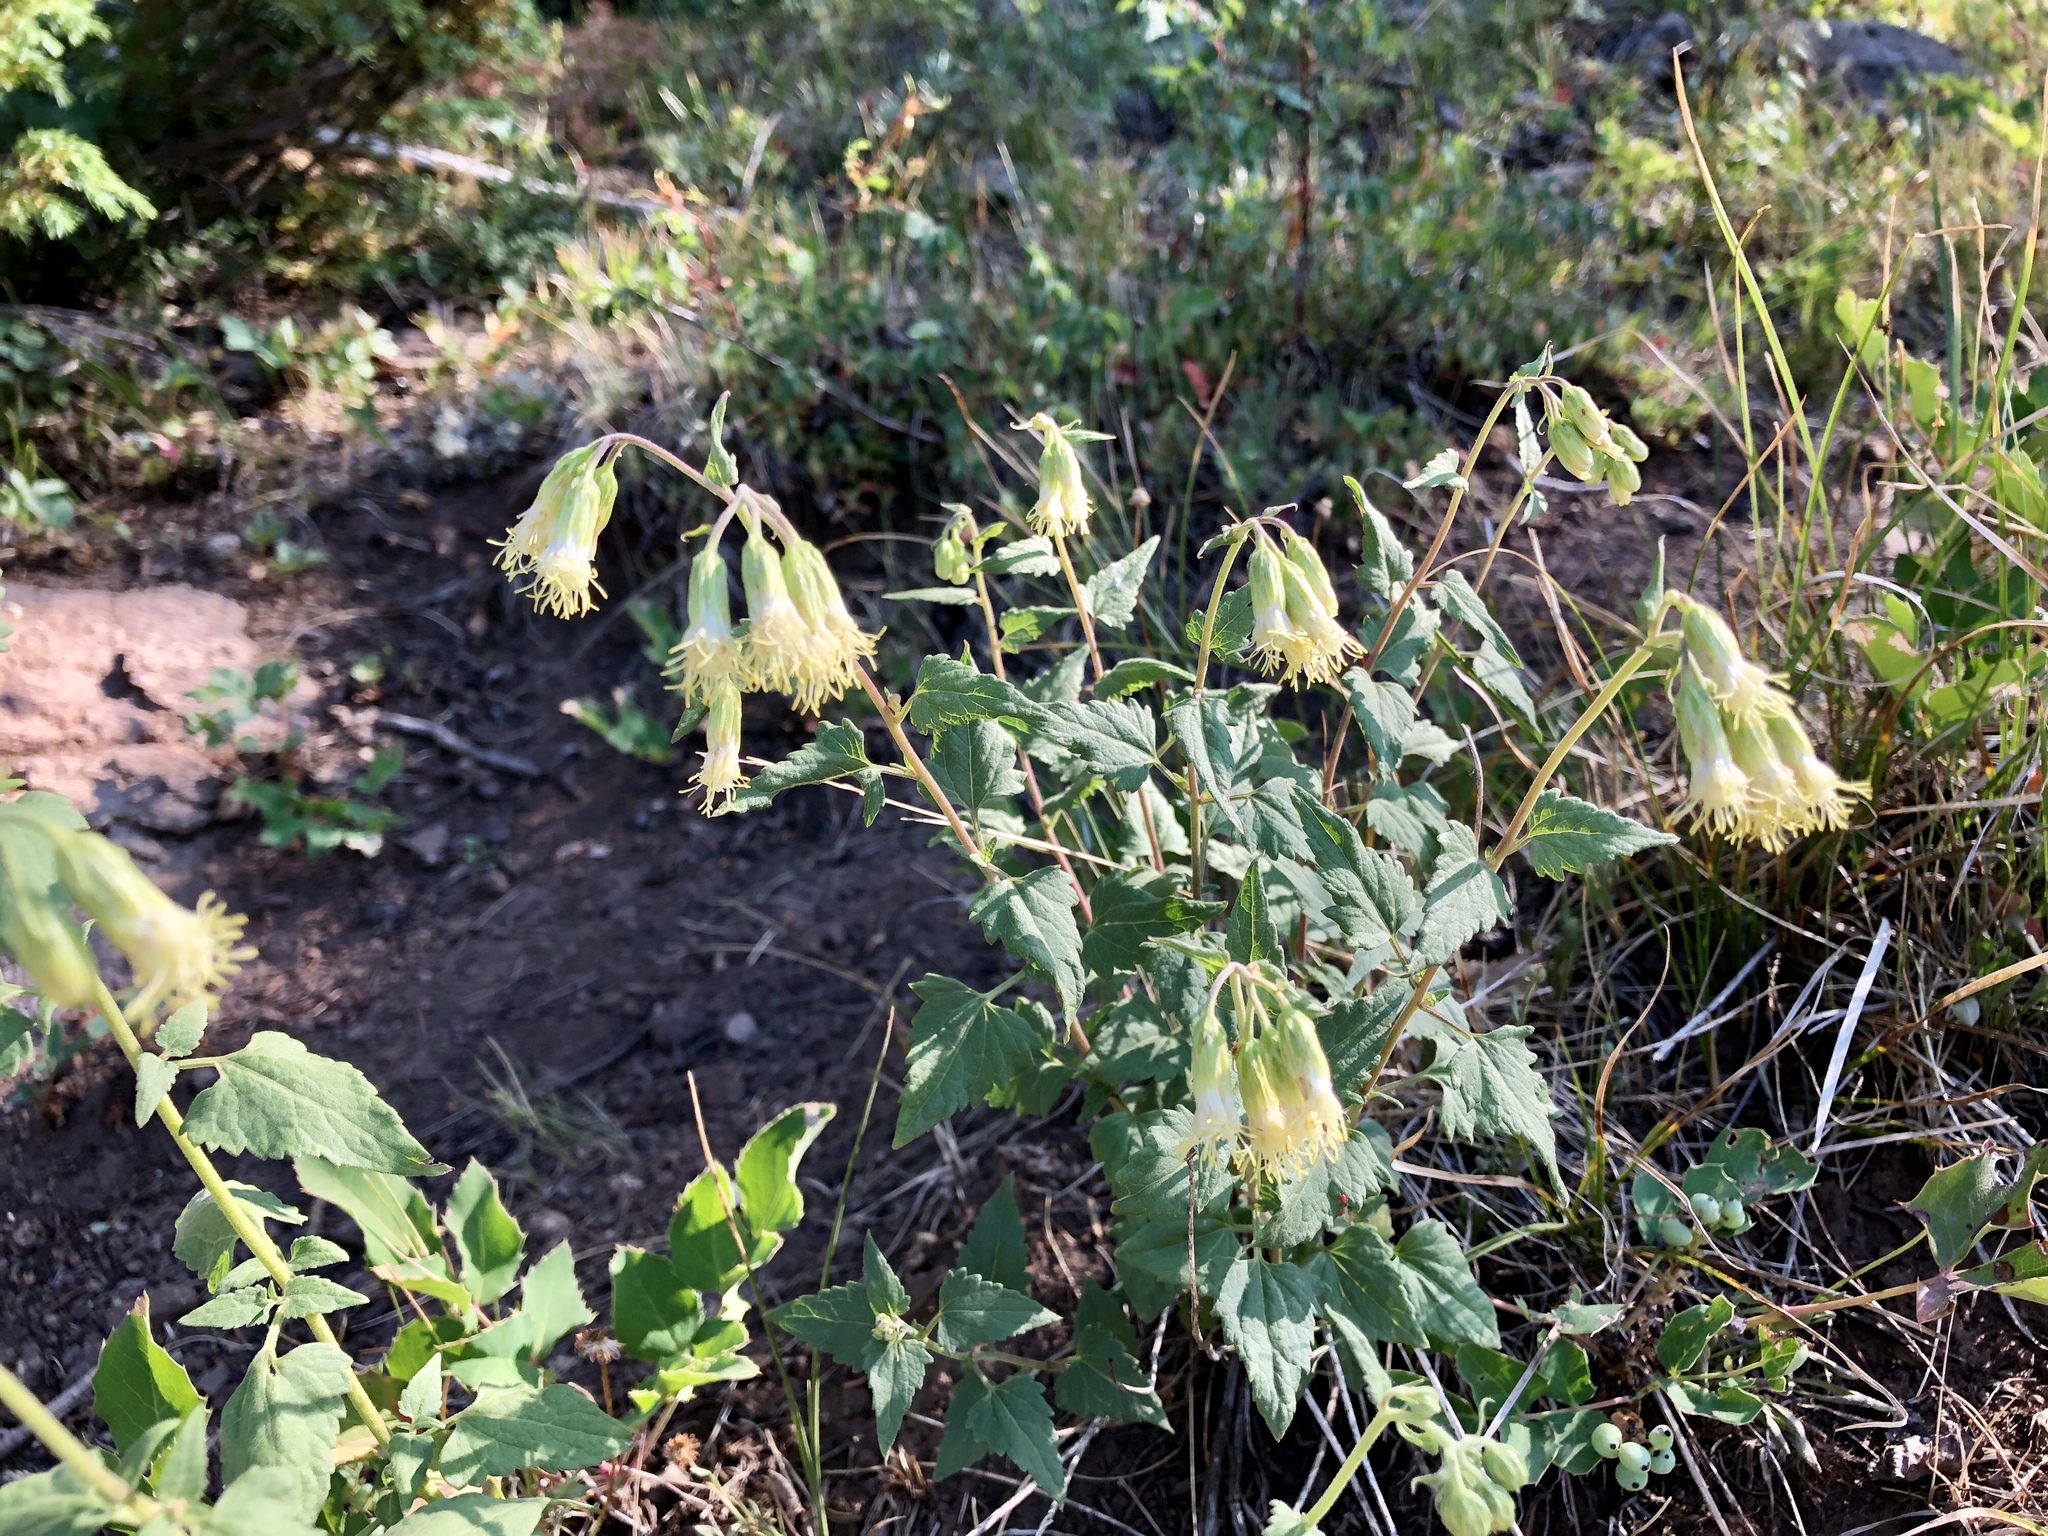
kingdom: Plantae
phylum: Tracheophyta
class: Magnoliopsida
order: Asterales
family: Asteraceae
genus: Brickellia
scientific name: Brickellia grandiflora
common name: Large-flowered brickellia
